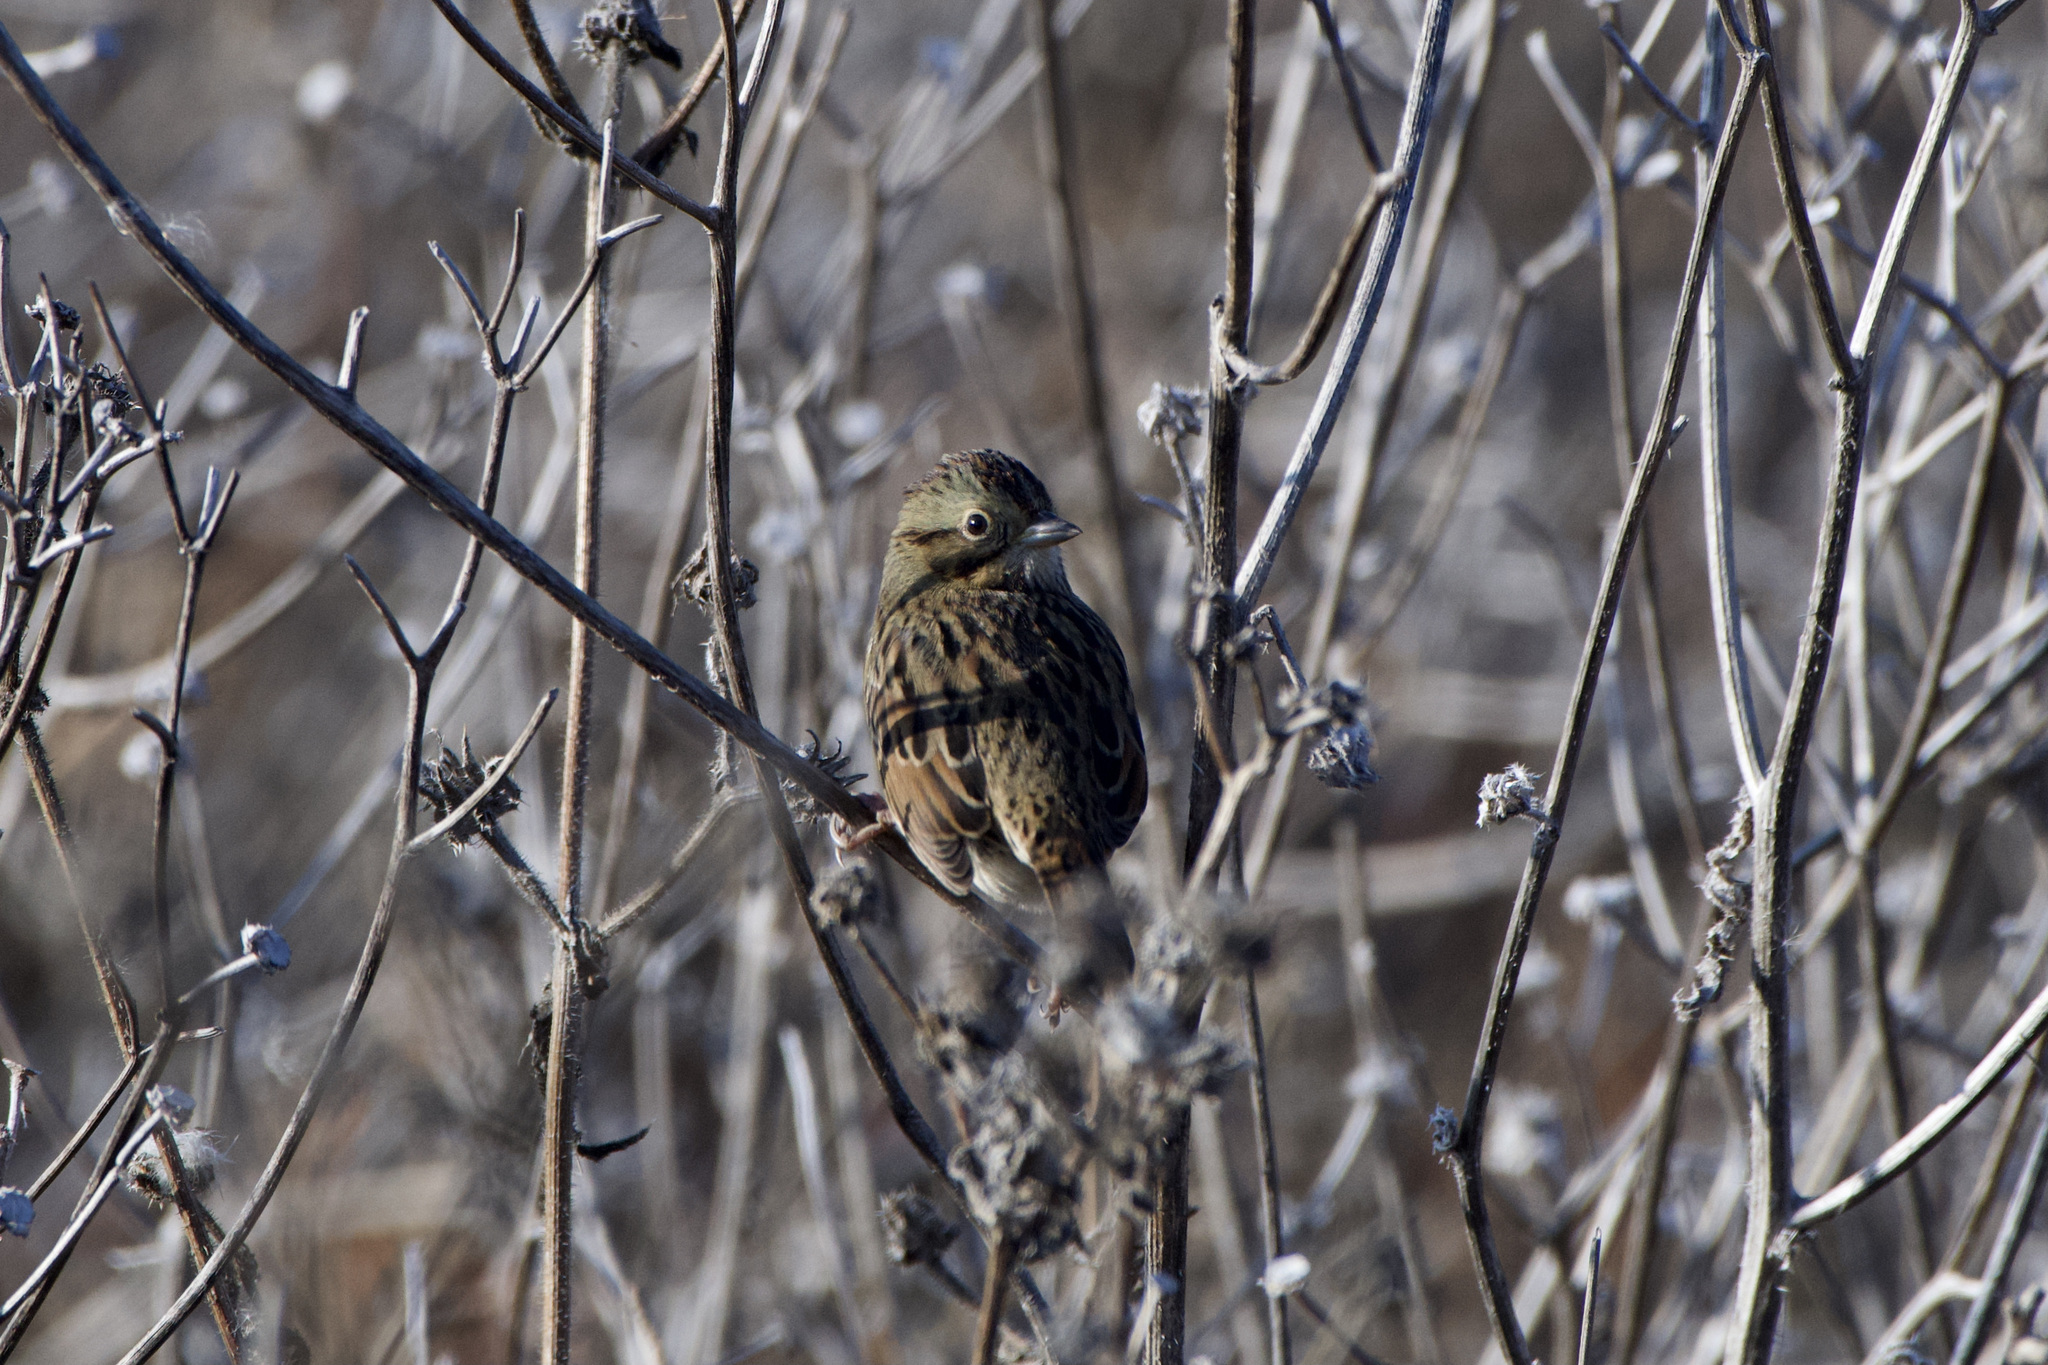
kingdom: Animalia
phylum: Chordata
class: Aves
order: Passeriformes
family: Passerellidae
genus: Melospiza
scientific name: Melospiza lincolnii
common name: Lincoln's sparrow
